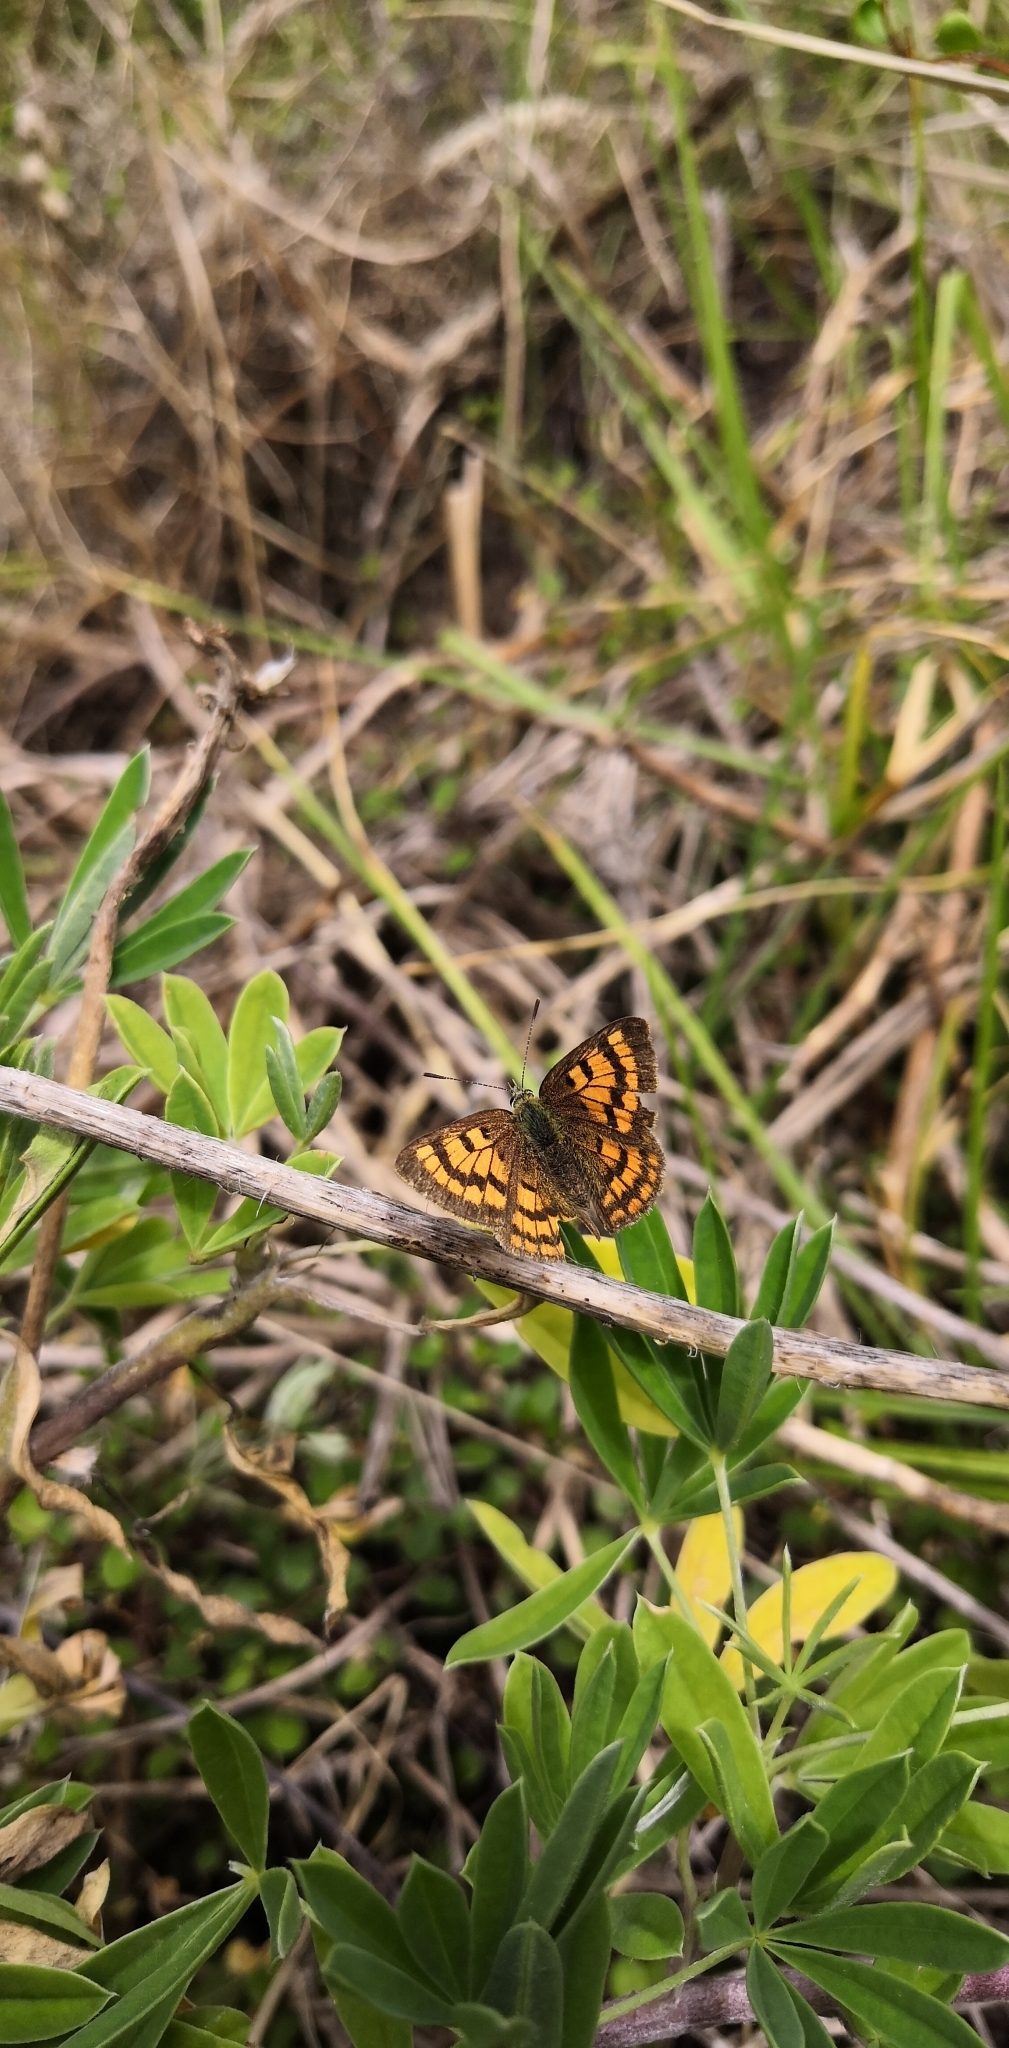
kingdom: Animalia
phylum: Arthropoda
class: Insecta
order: Lepidoptera
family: Lycaenidae
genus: Lycaena
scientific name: Lycaena salustius
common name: North island coastal copper
